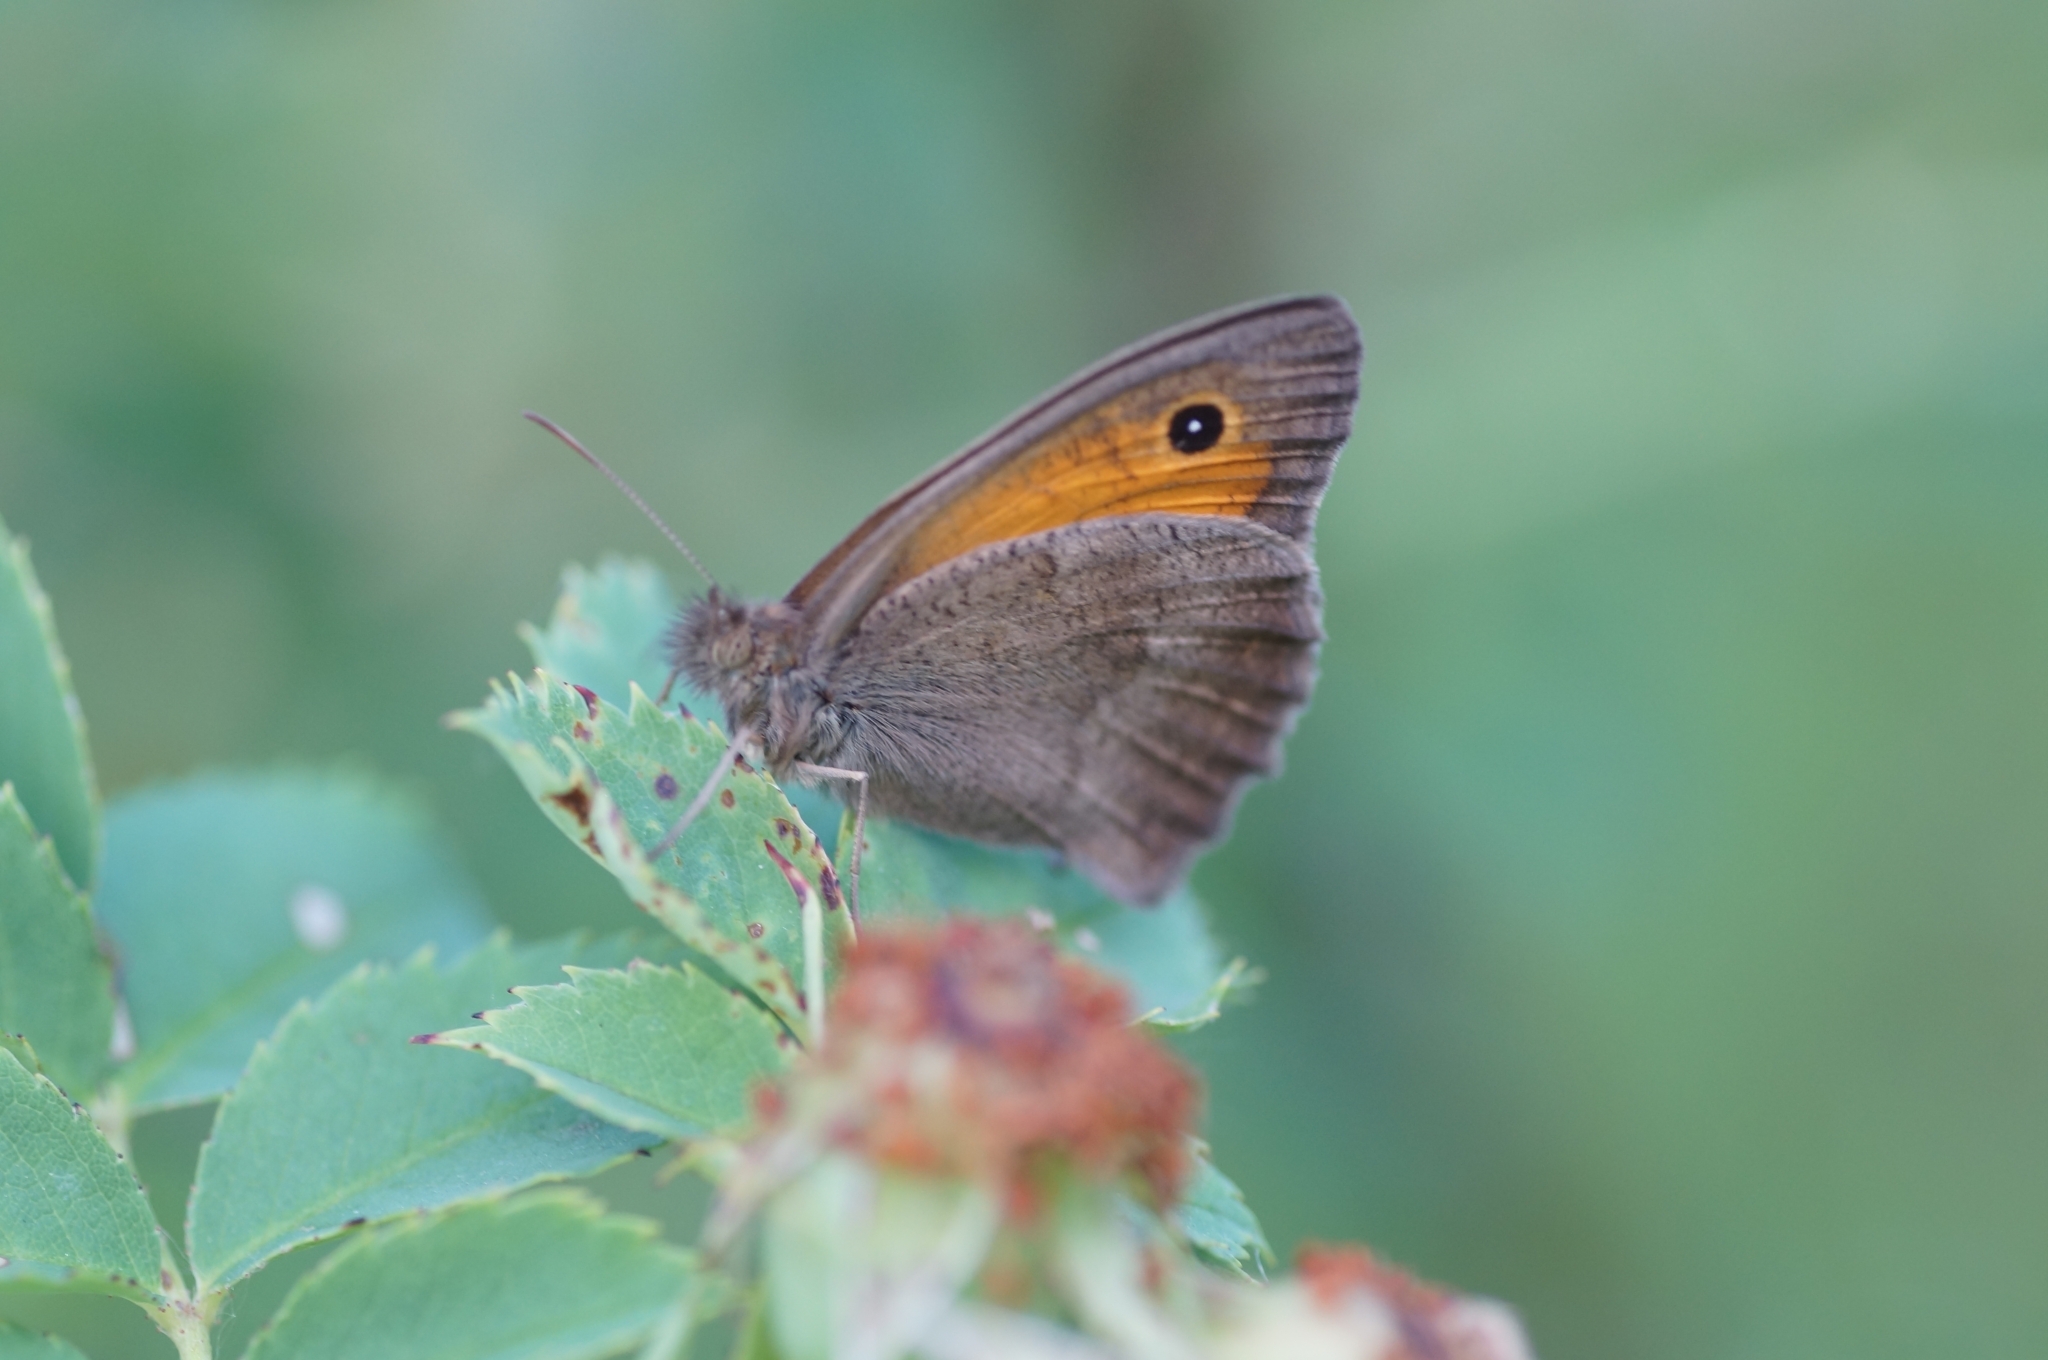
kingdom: Animalia
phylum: Arthropoda
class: Insecta
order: Lepidoptera
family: Nymphalidae
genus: Hyponephele
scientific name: Hyponephele lycaon
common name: Dusky meadow brown
